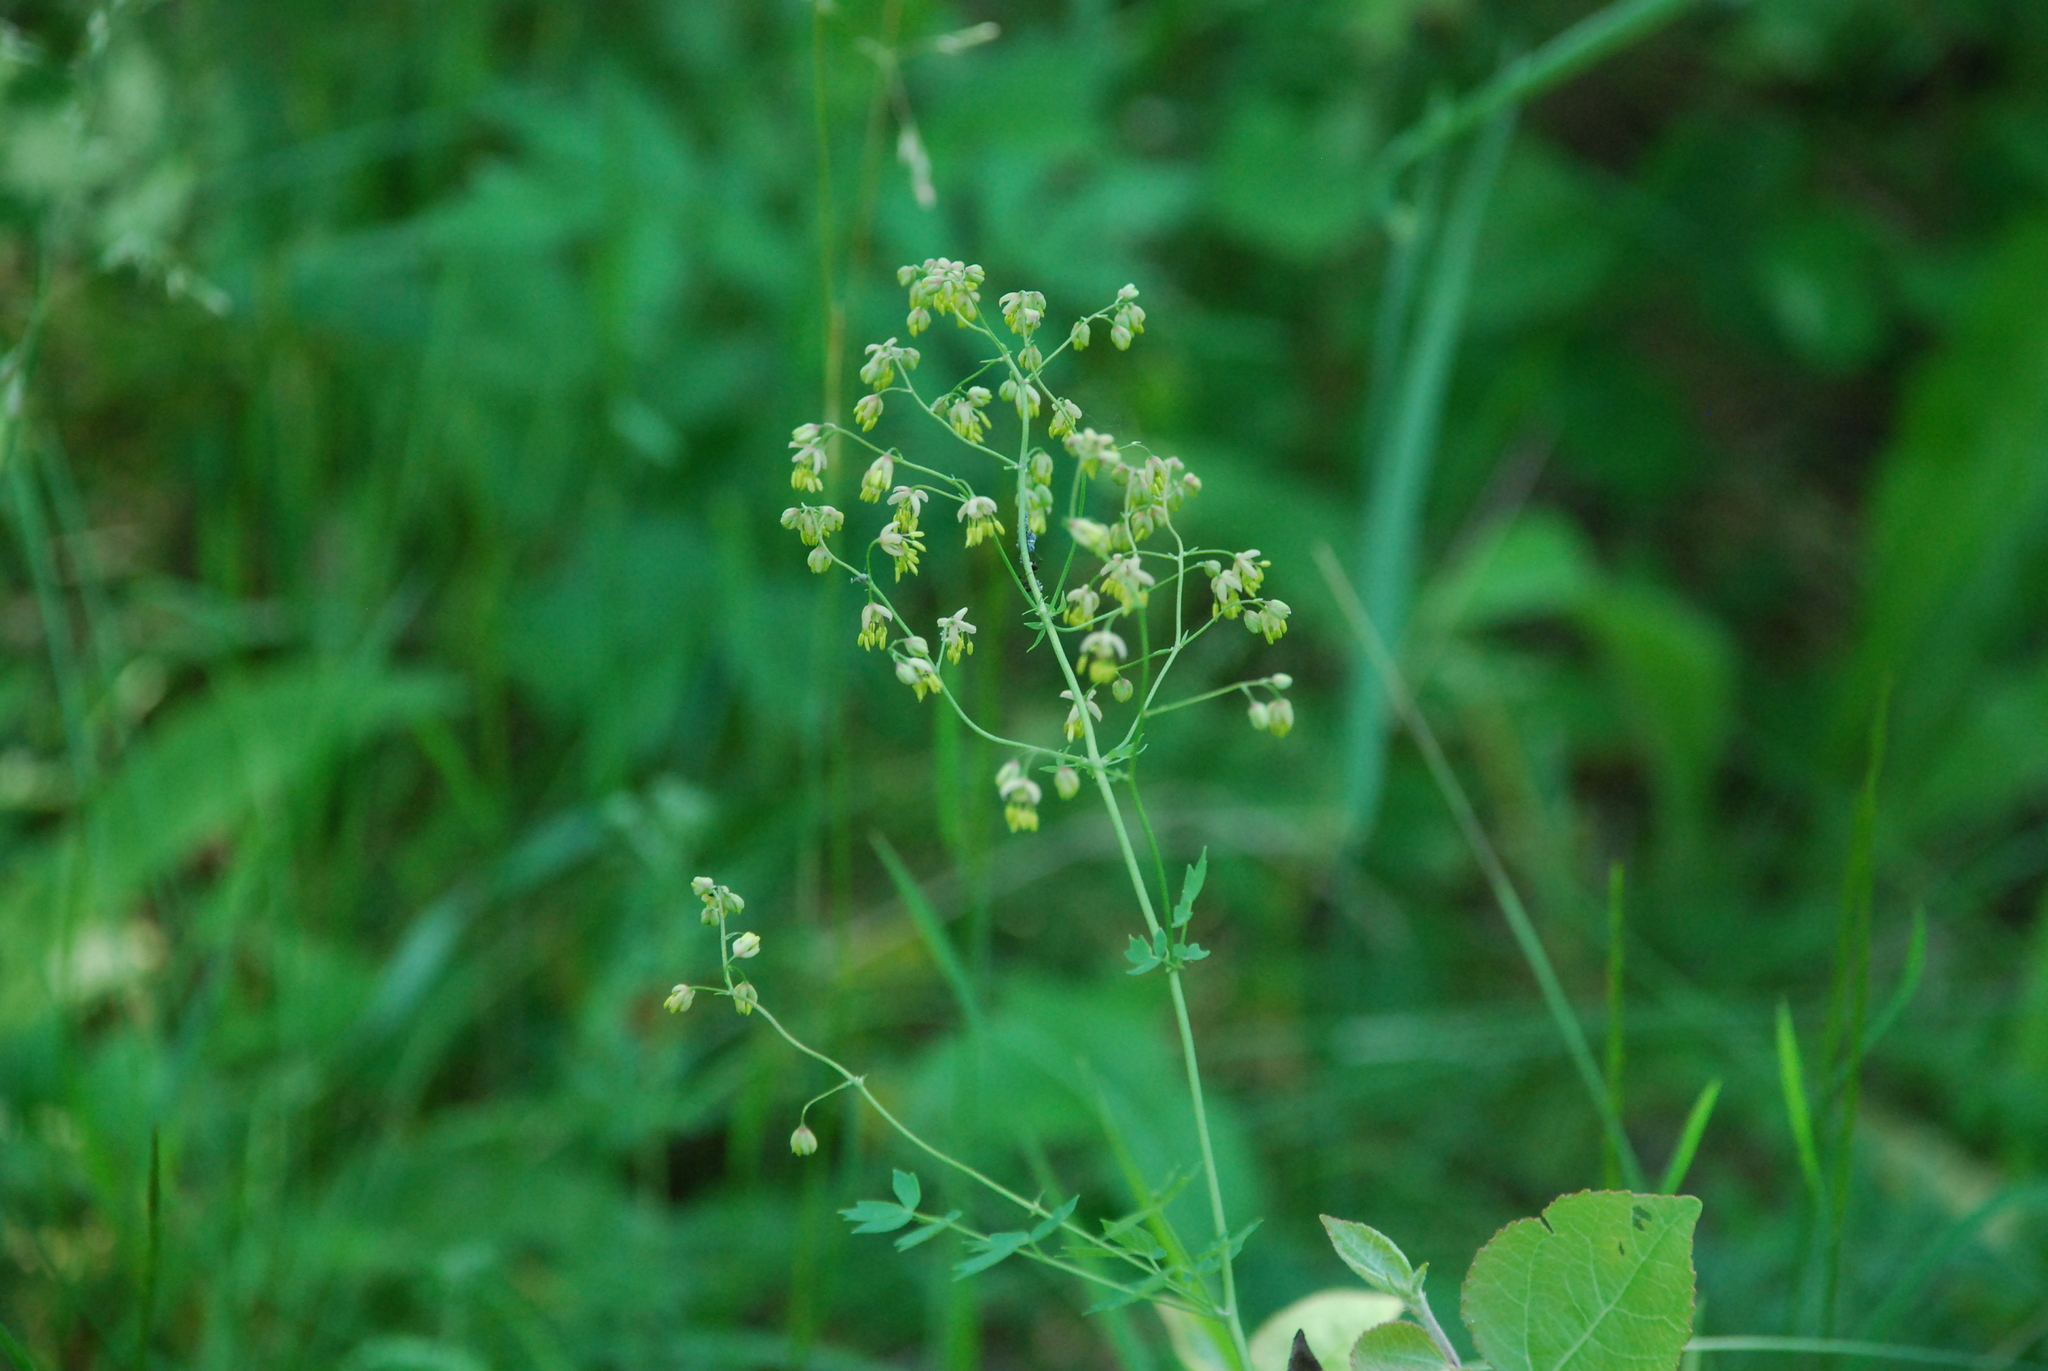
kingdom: Plantae
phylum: Tracheophyta
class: Magnoliopsida
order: Ranunculales
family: Ranunculaceae
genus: Thalictrum
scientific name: Thalictrum minus
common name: Lesser meadow-rue
